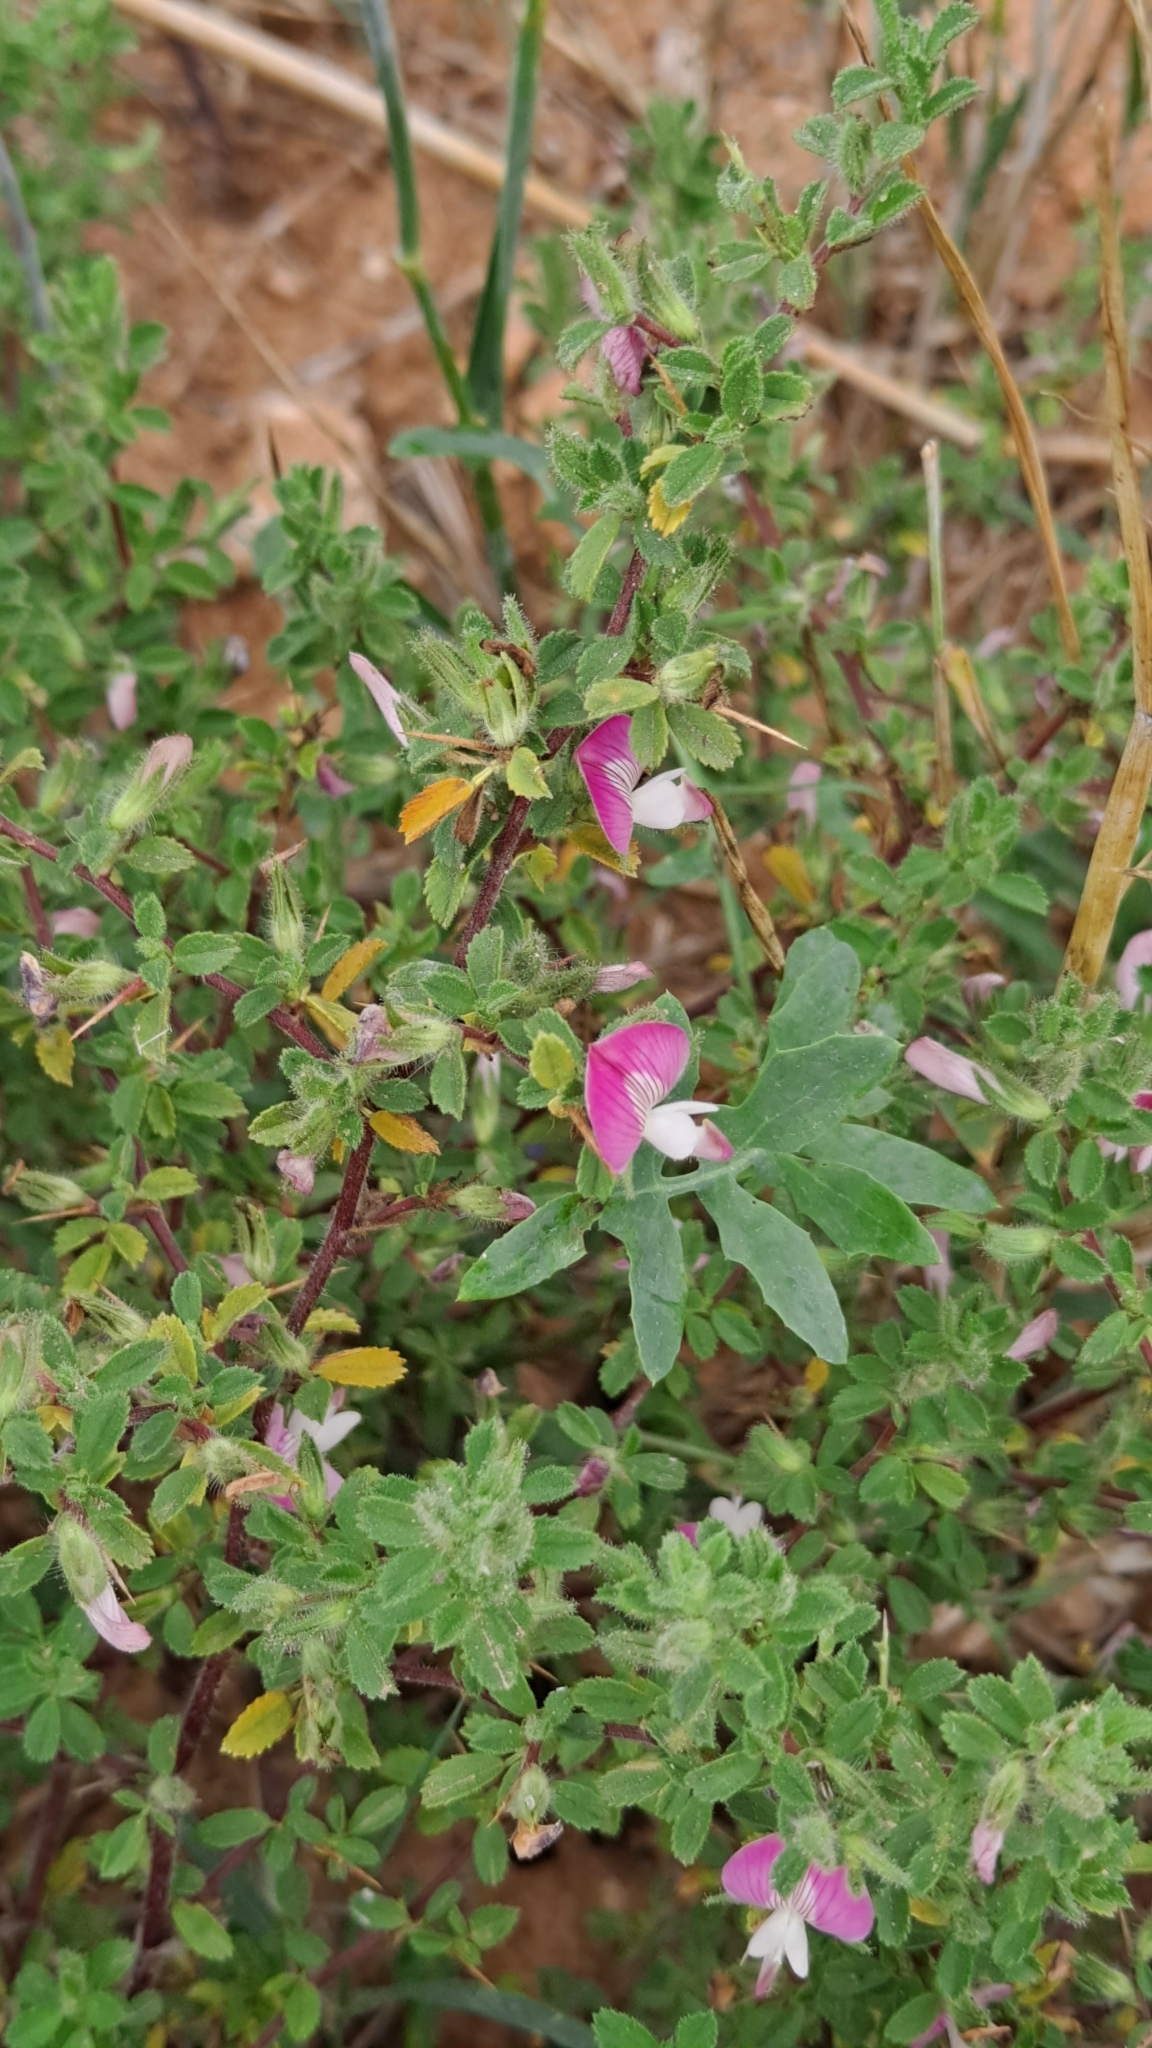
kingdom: Plantae
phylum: Tracheophyta
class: Magnoliopsida
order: Fabales
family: Fabaceae
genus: Ononis
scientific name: Ononis spinosa
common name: Spiny restharrow
